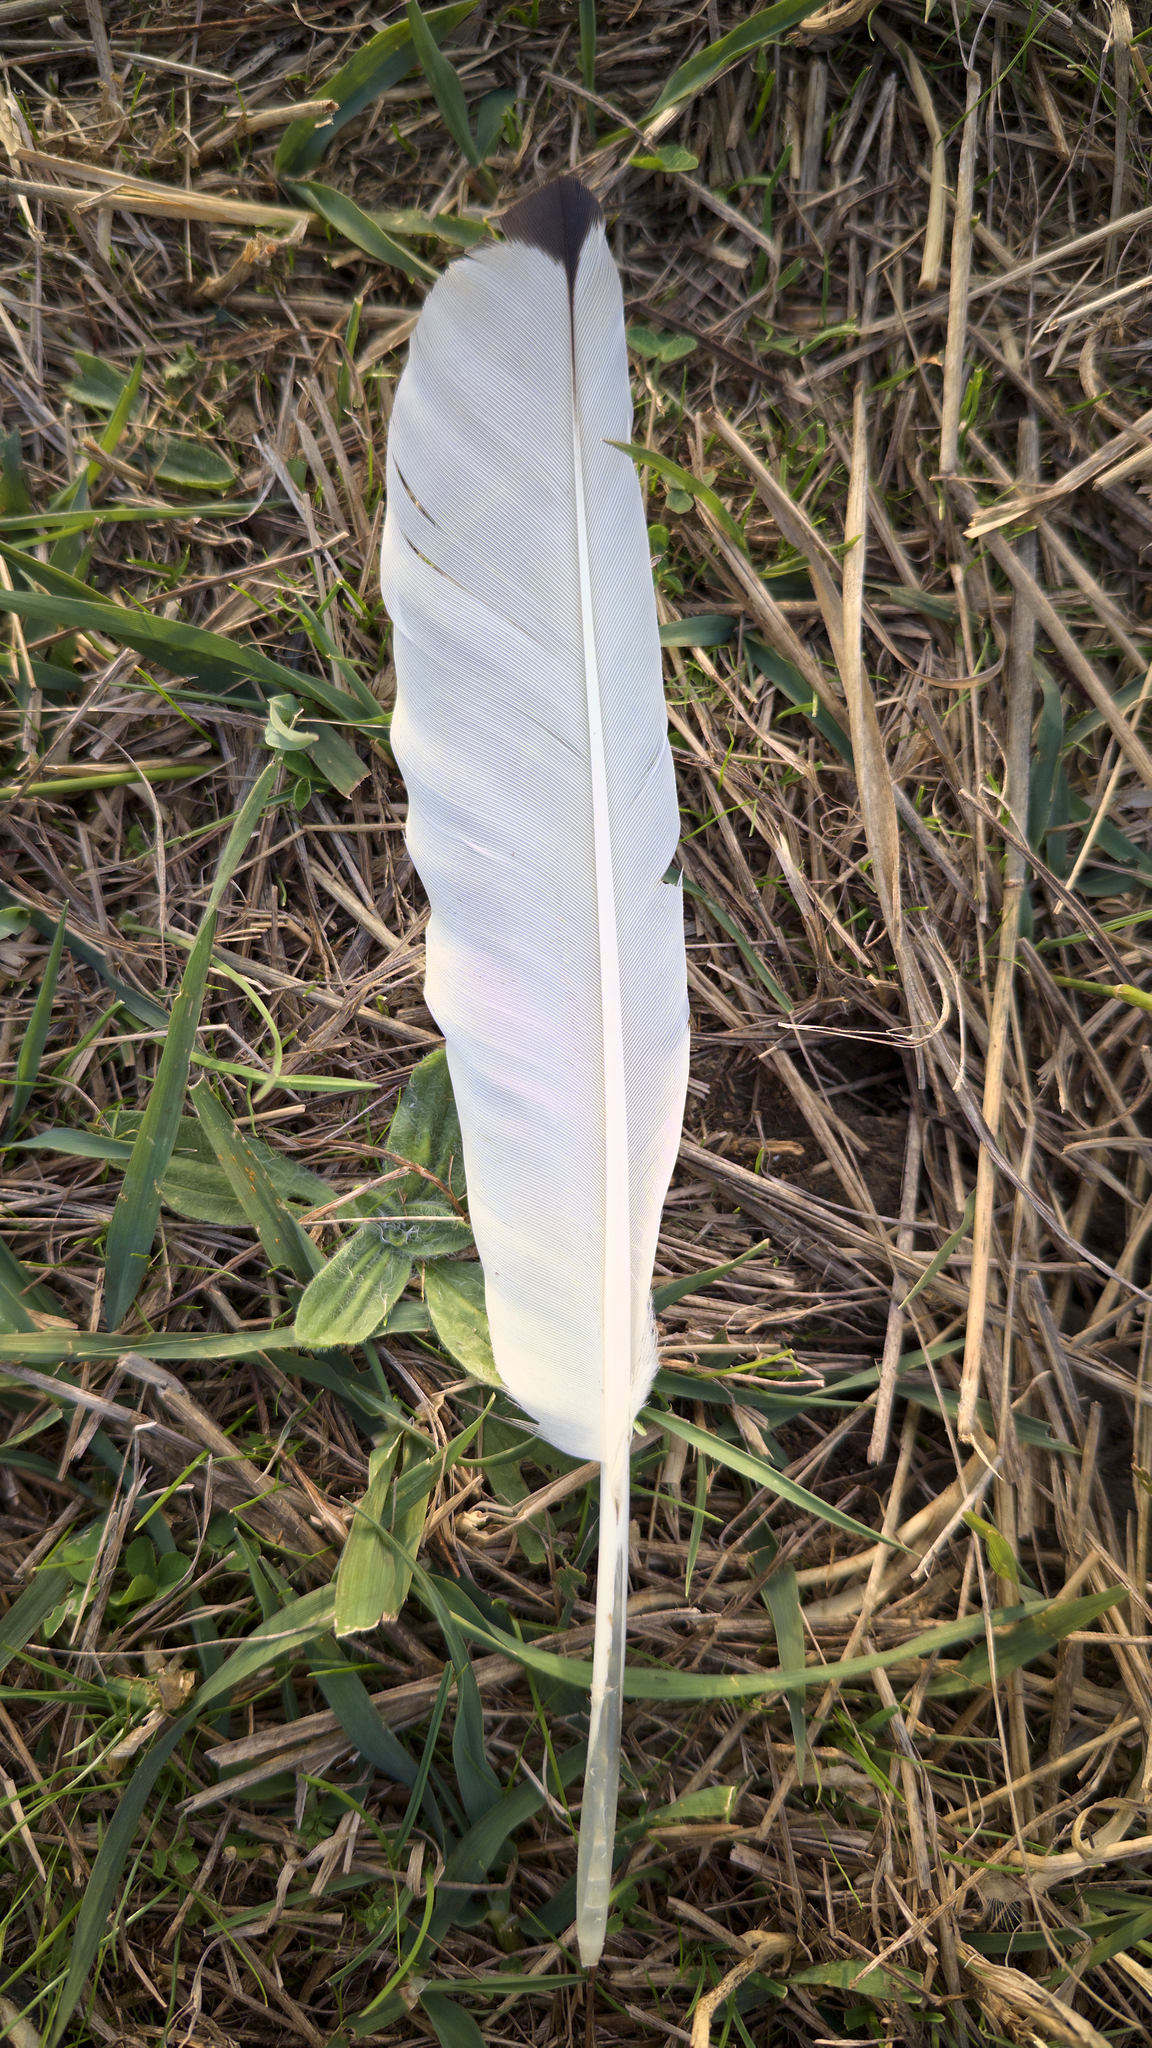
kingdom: Animalia
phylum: Chordata
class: Aves
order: Pelecaniformes
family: Threskiornithidae
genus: Threskiornis
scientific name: Threskiornis molucca
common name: Australian white ibis
